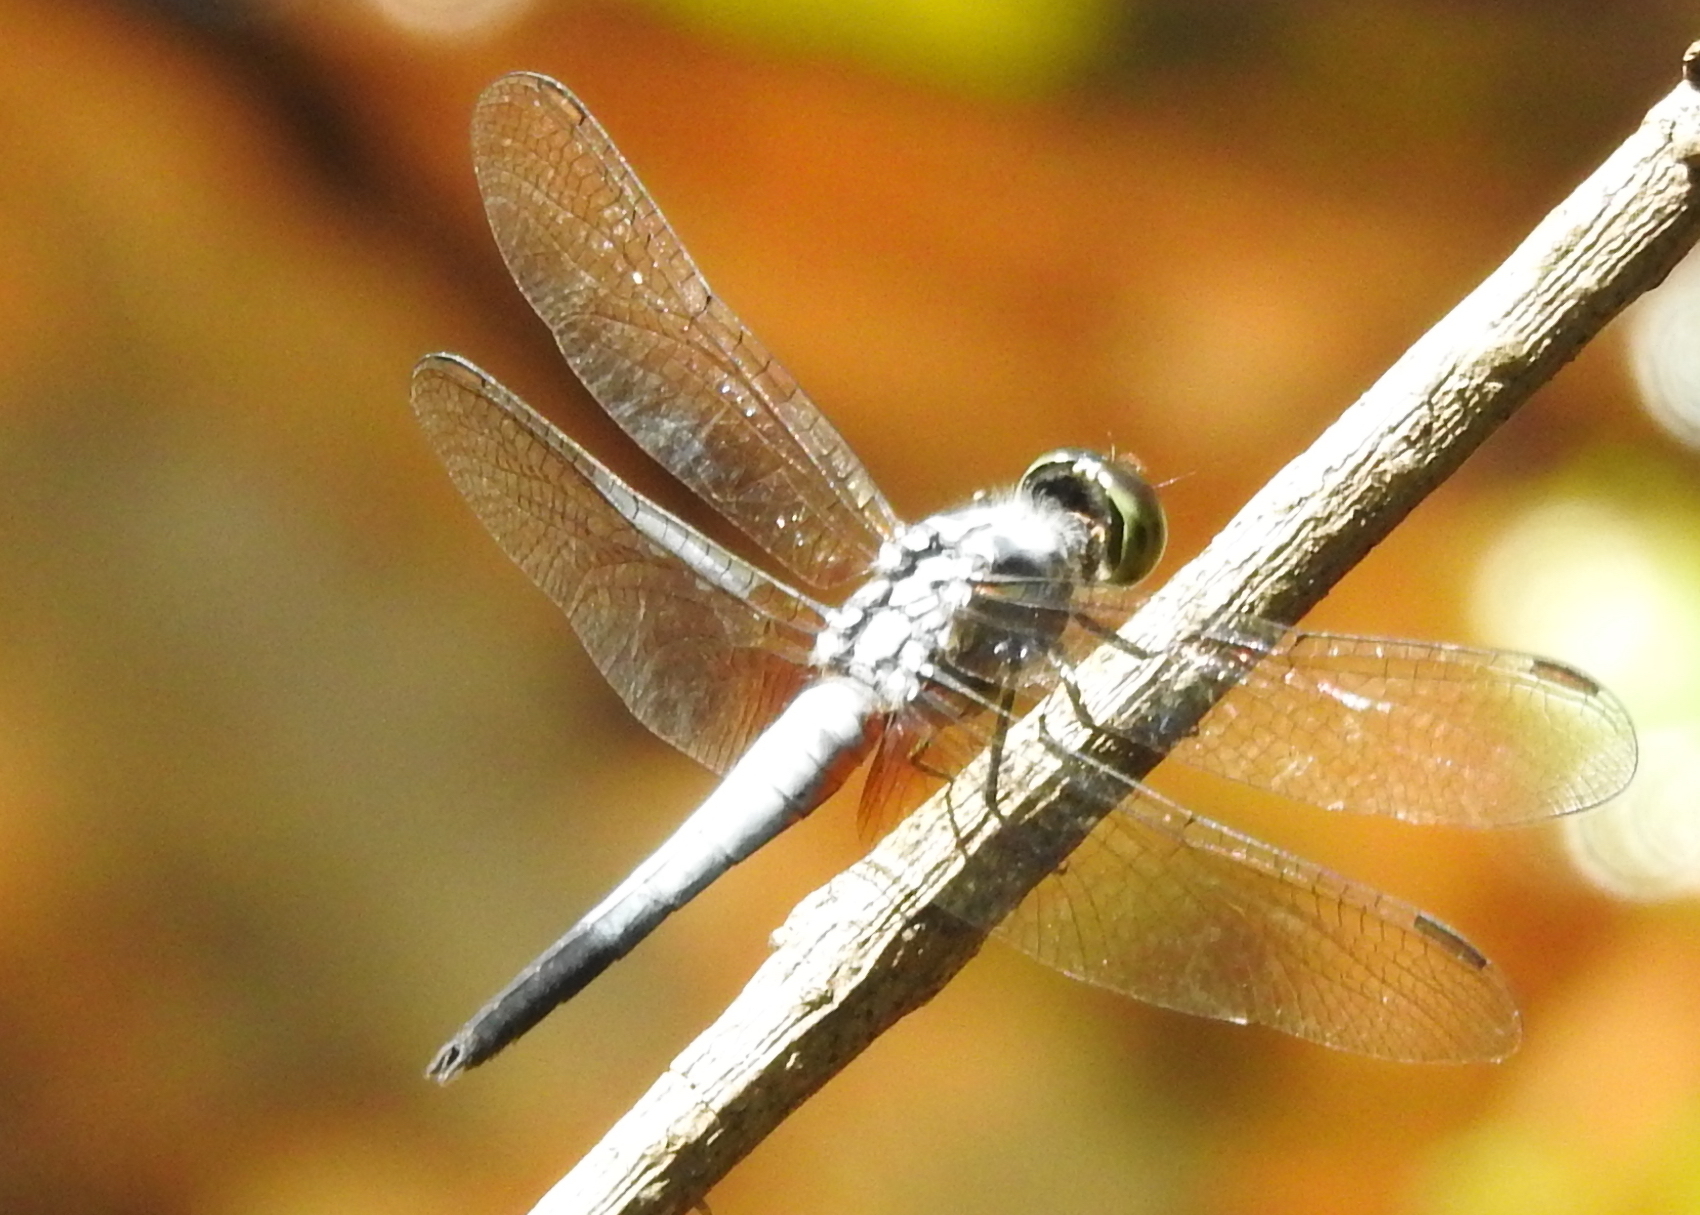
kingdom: Animalia
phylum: Arthropoda
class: Insecta
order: Odonata
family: Libellulidae
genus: Brachydiplax
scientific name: Brachydiplax chalybea
